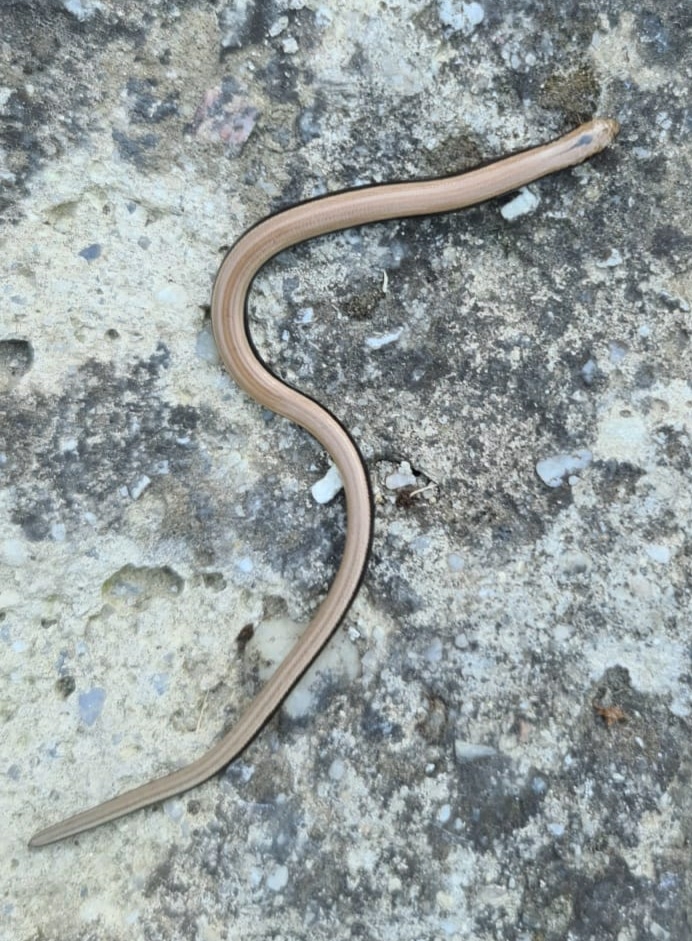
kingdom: Animalia
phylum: Chordata
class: Squamata
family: Anguidae
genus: Anguis
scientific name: Anguis fragilis
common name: Slow worm
